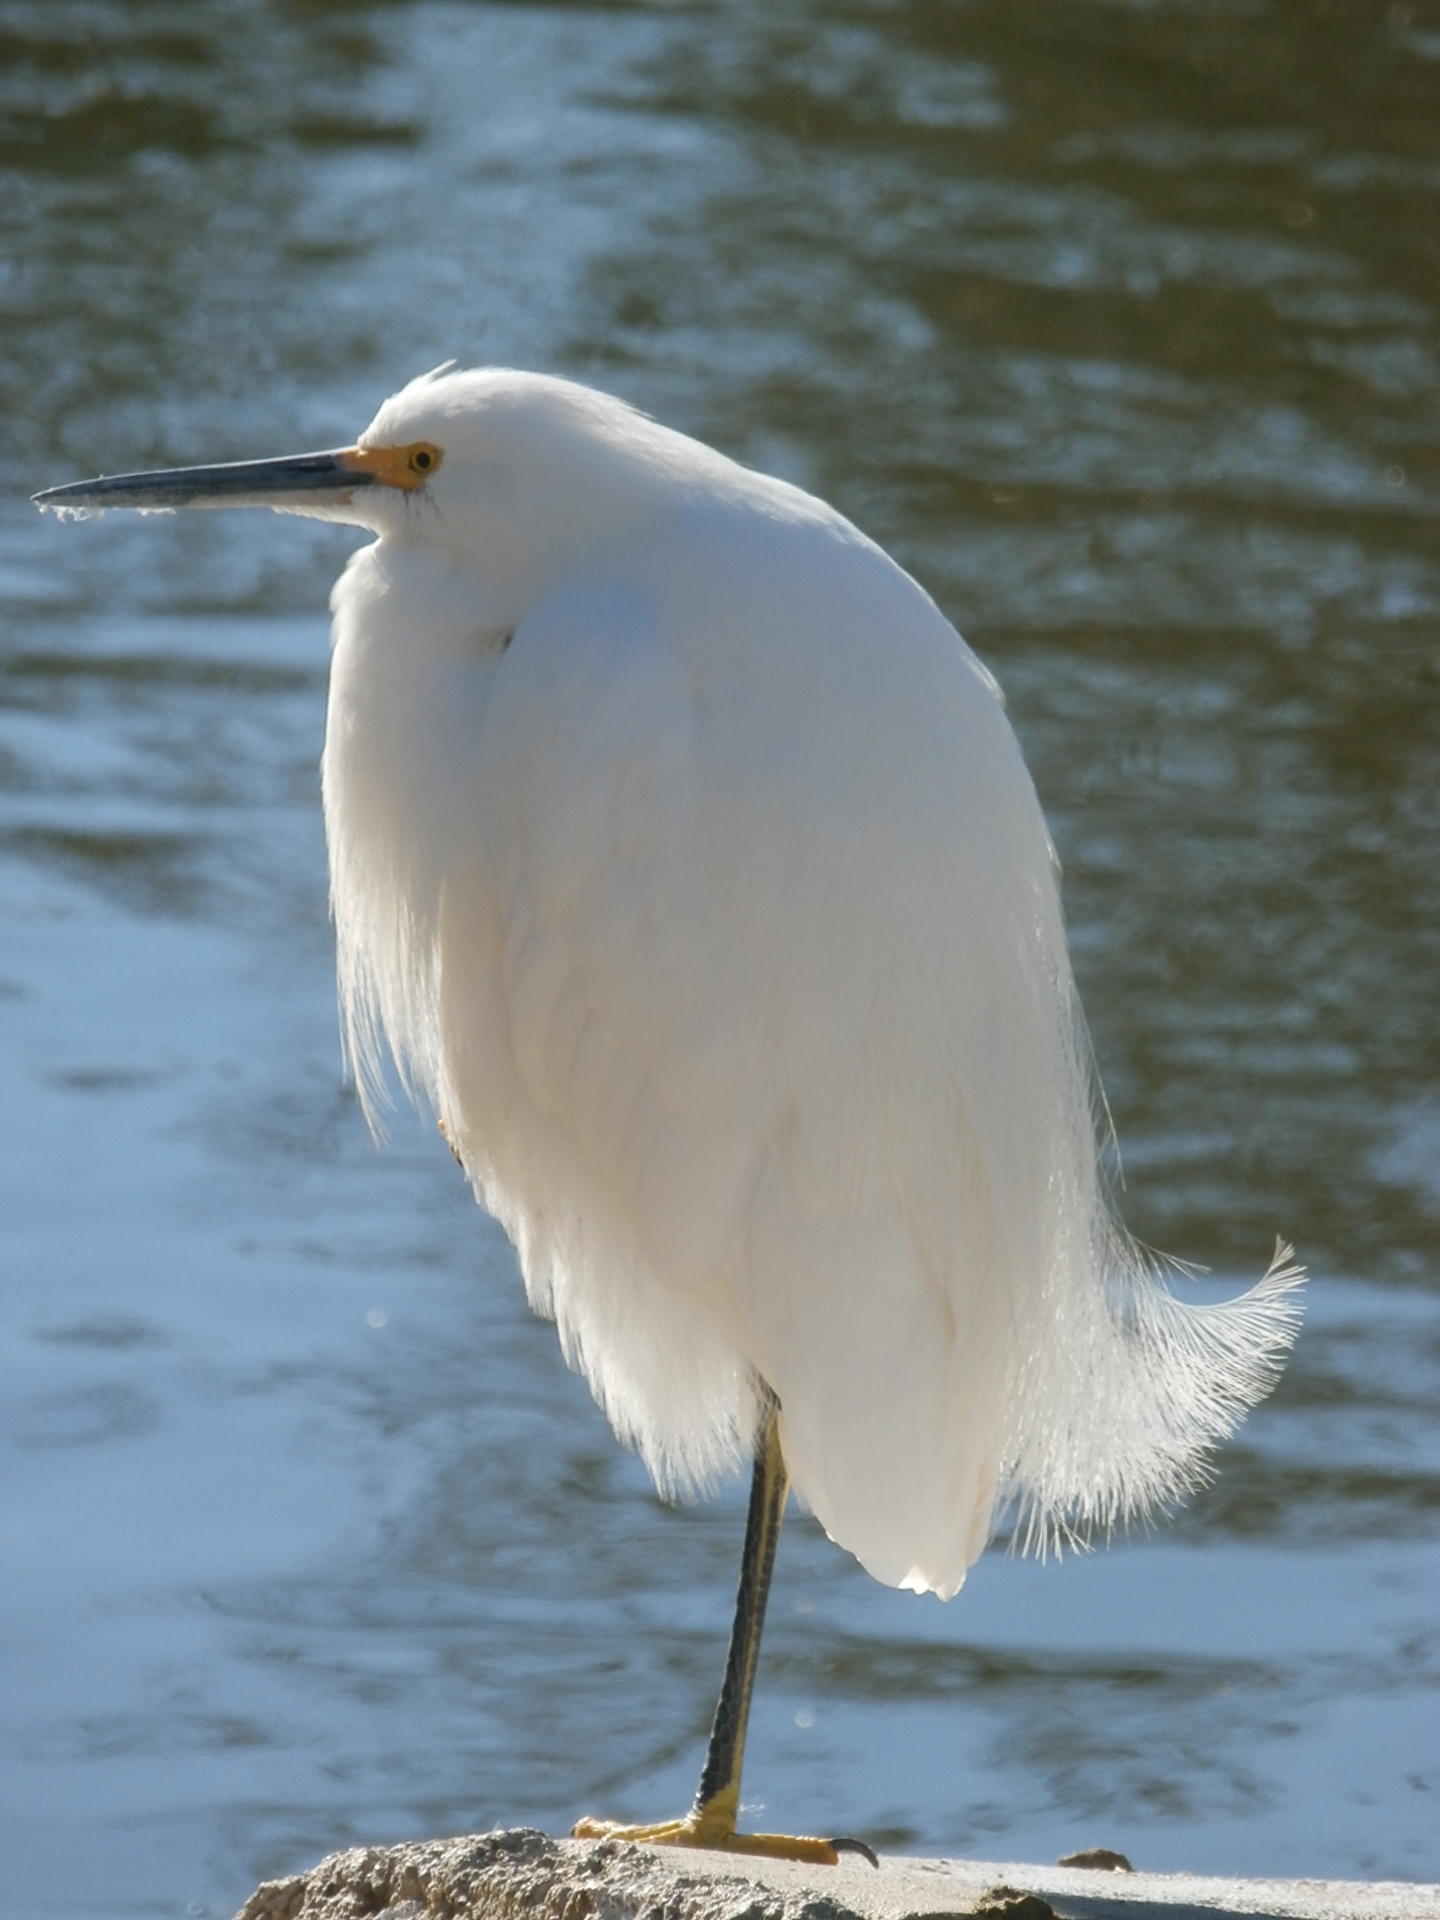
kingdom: Animalia
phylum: Chordata
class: Aves
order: Pelecaniformes
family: Ardeidae
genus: Egretta
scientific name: Egretta thula
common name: Snowy egret
